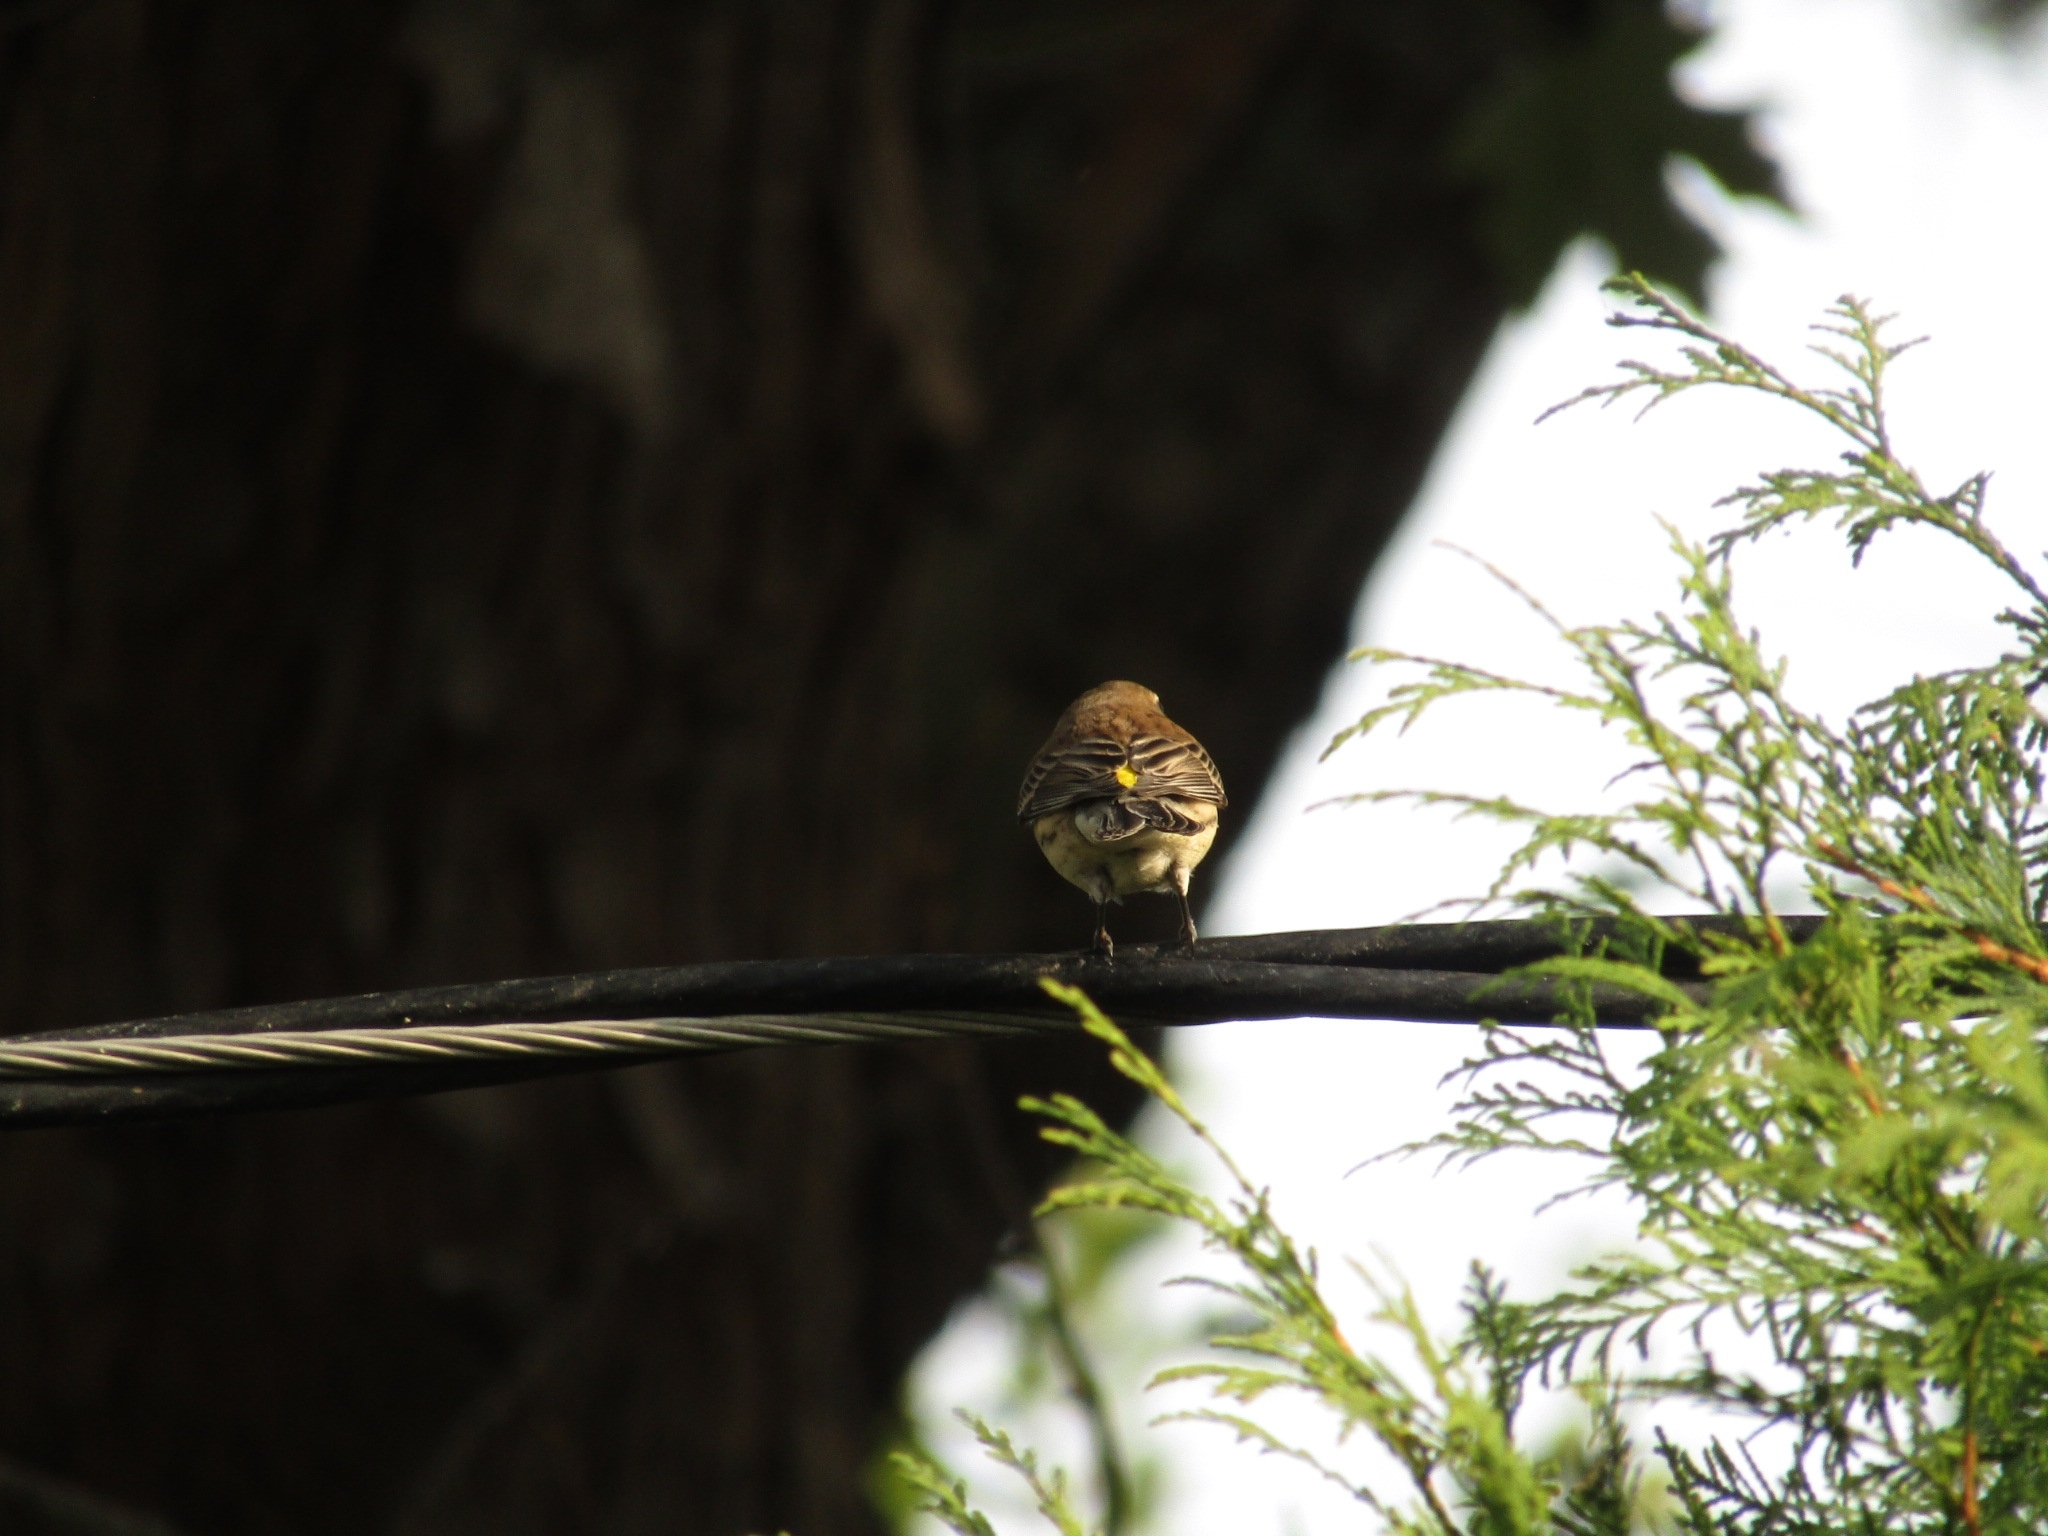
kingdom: Animalia
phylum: Chordata
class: Aves
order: Passeriformes
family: Parulidae
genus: Setophaga
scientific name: Setophaga coronata
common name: Myrtle warbler
